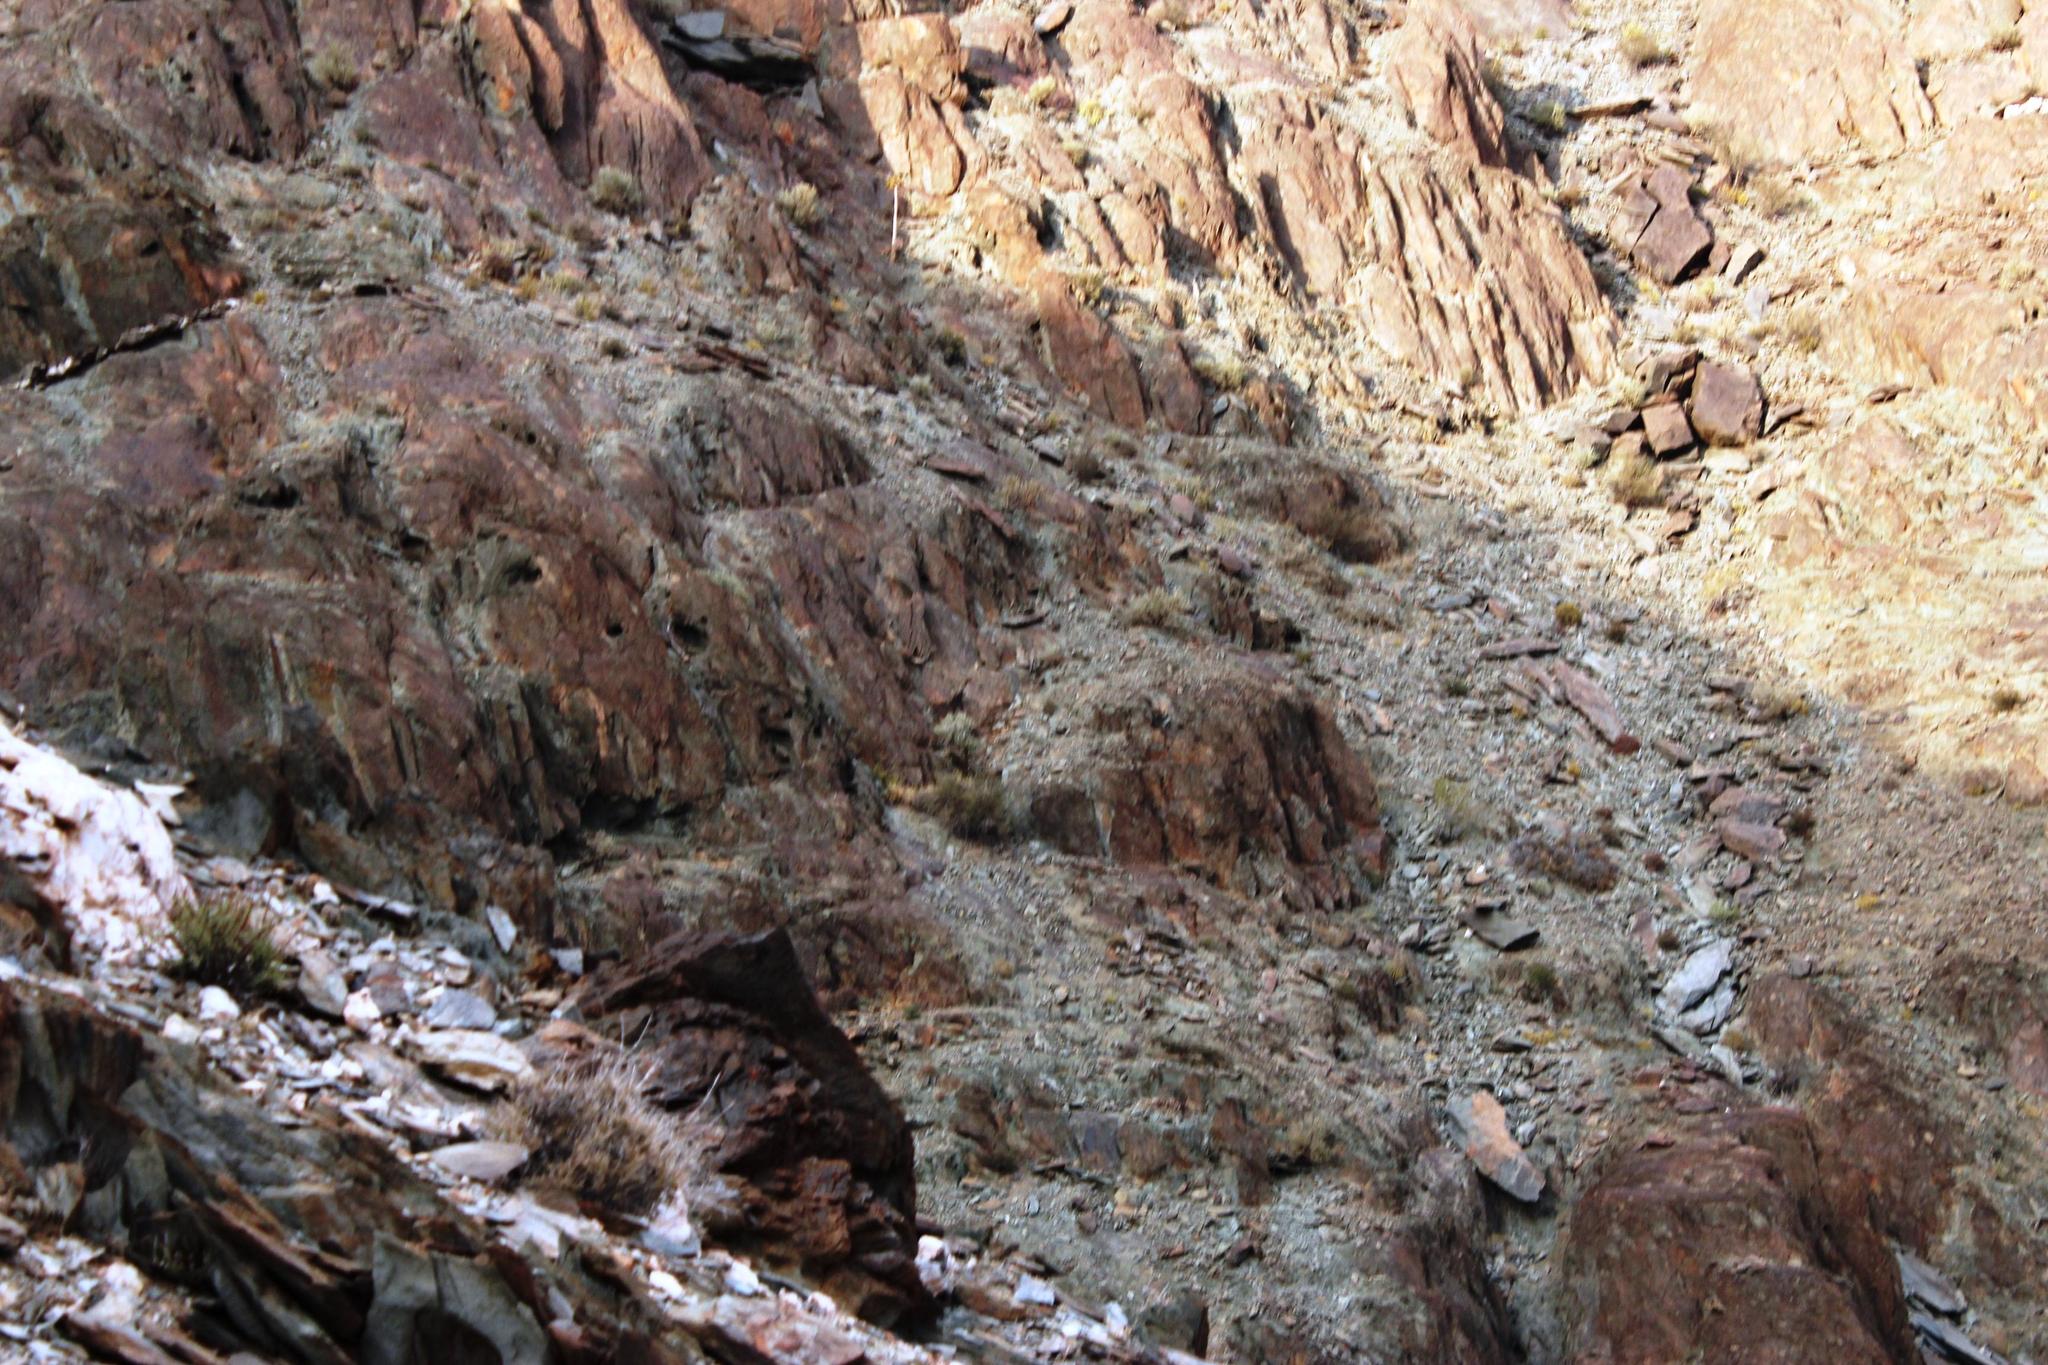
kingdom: Plantae
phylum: Tracheophyta
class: Liliopsida
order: Asparagales
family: Asphodelaceae
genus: Aloidendron
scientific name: Aloidendron dichotomum
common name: Quiver tree
